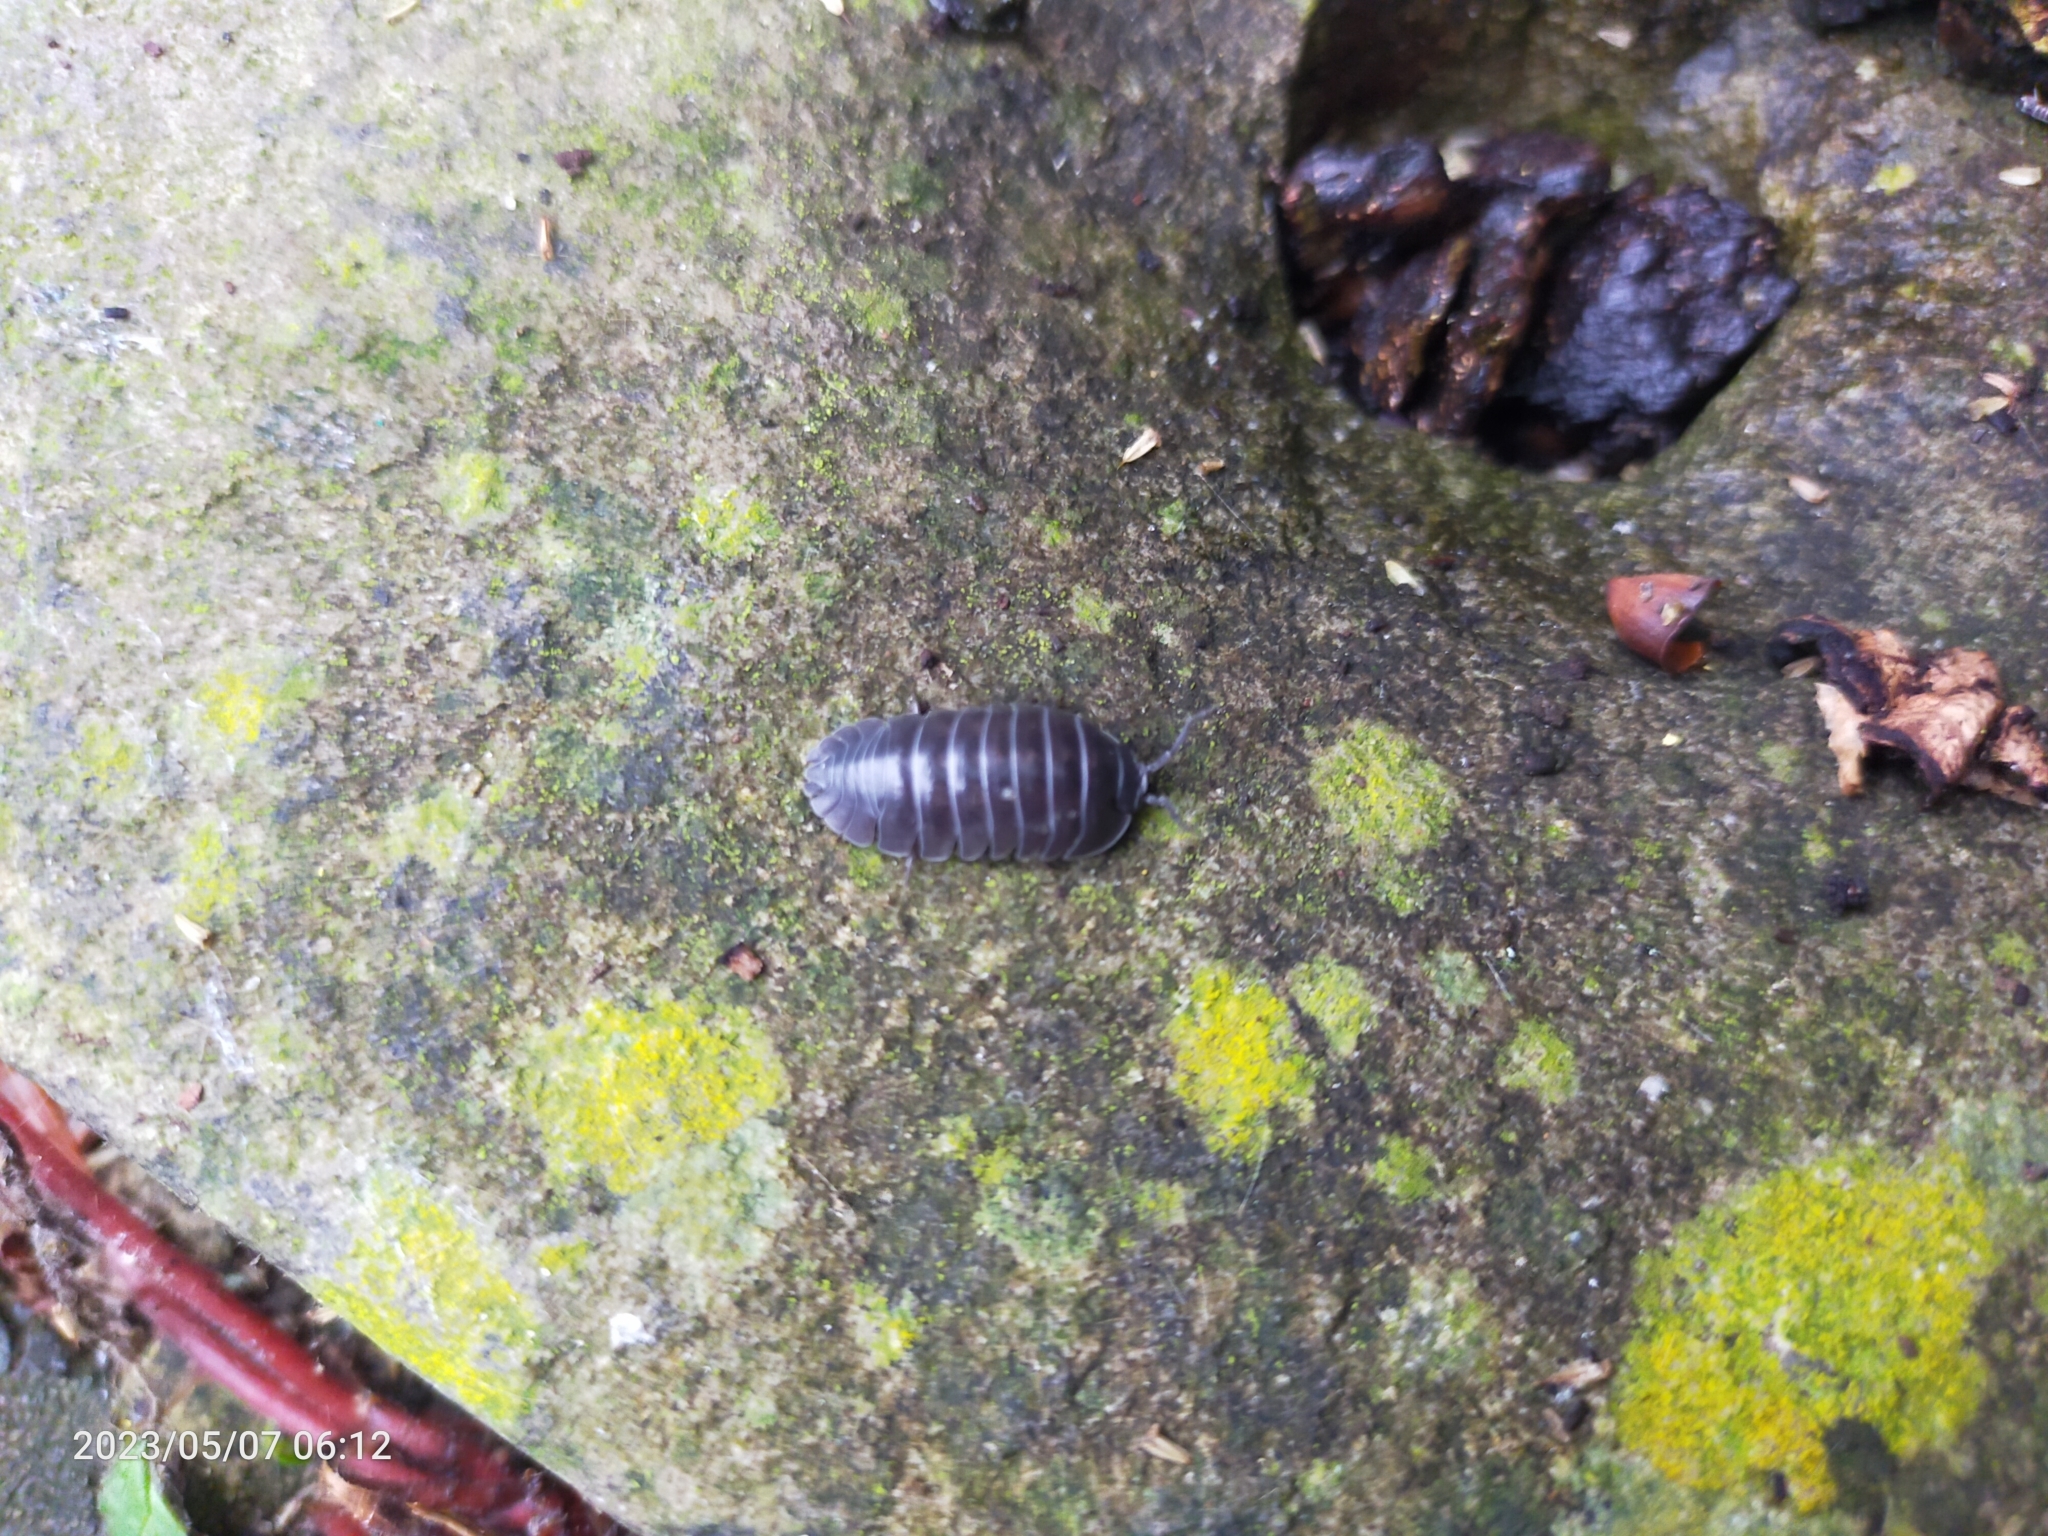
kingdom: Animalia
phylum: Arthropoda
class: Malacostraca
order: Isopoda
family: Armadillidiidae
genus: Armadillidium
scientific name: Armadillidium depressum
